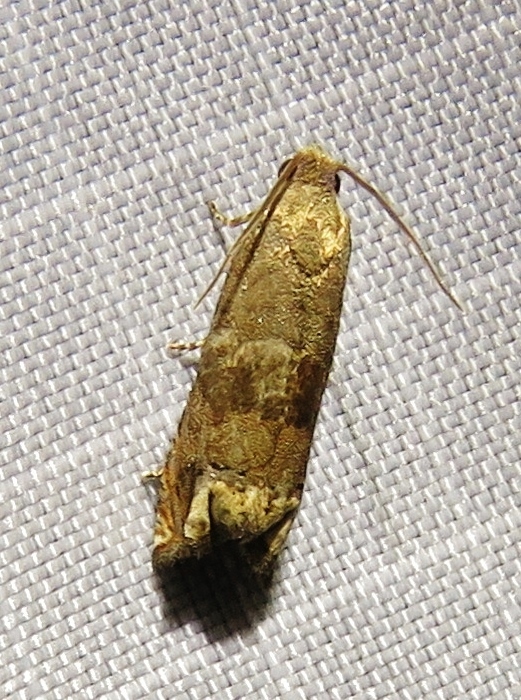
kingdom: Animalia
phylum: Arthropoda
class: Insecta
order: Lepidoptera
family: Tortricidae
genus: Epiblema
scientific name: Epiblema strenuana
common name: Ragweed borer moth
